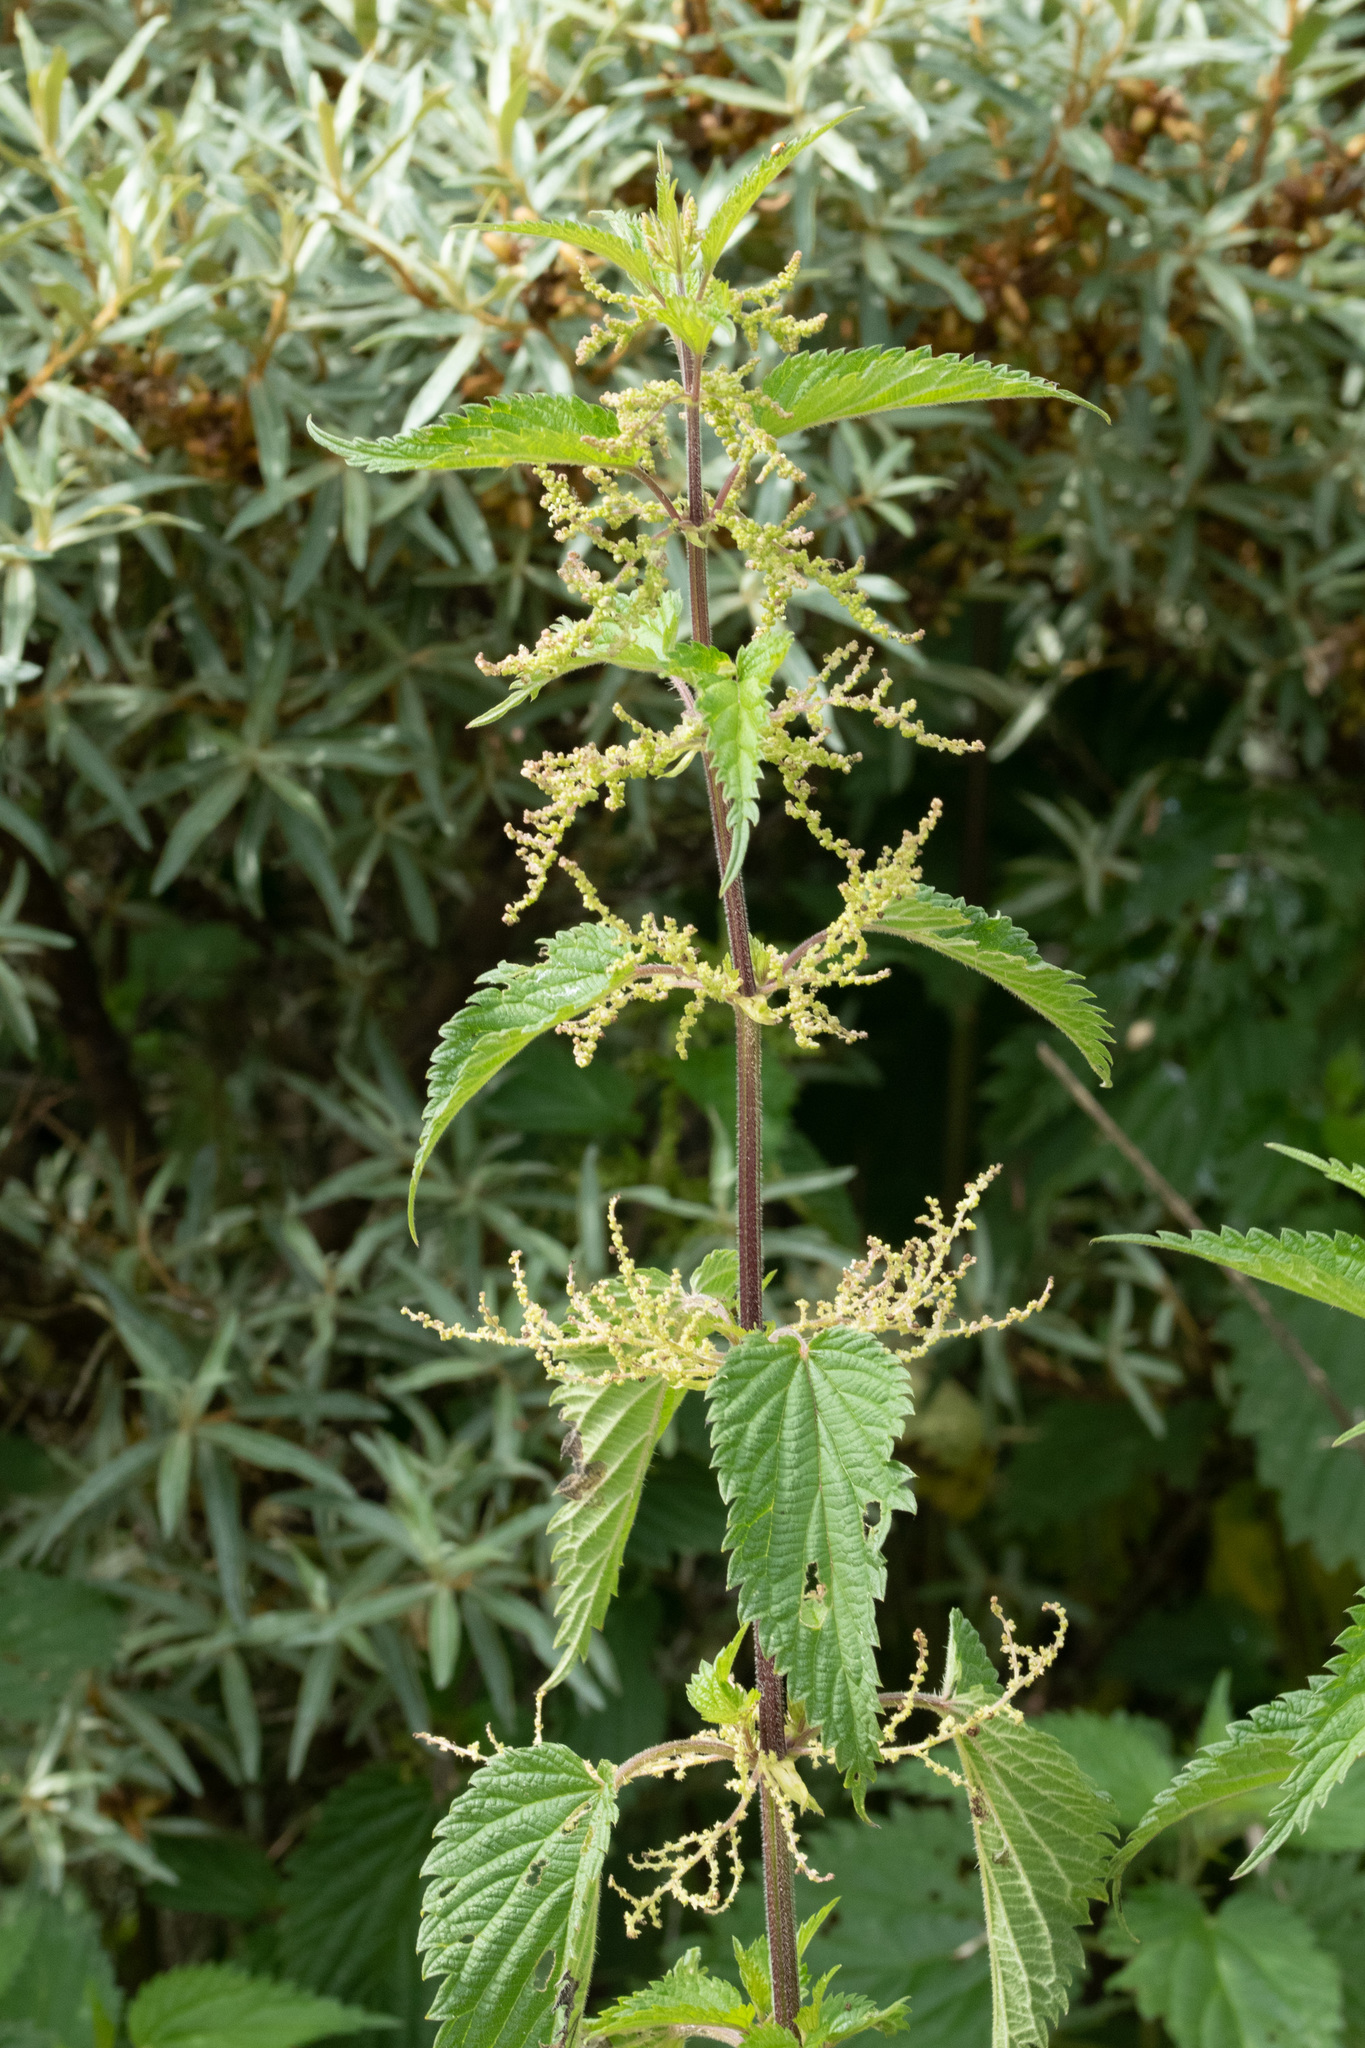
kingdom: Plantae
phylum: Tracheophyta
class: Magnoliopsida
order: Rosales
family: Urticaceae
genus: Urtica
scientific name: Urtica dioica
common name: Common nettle
